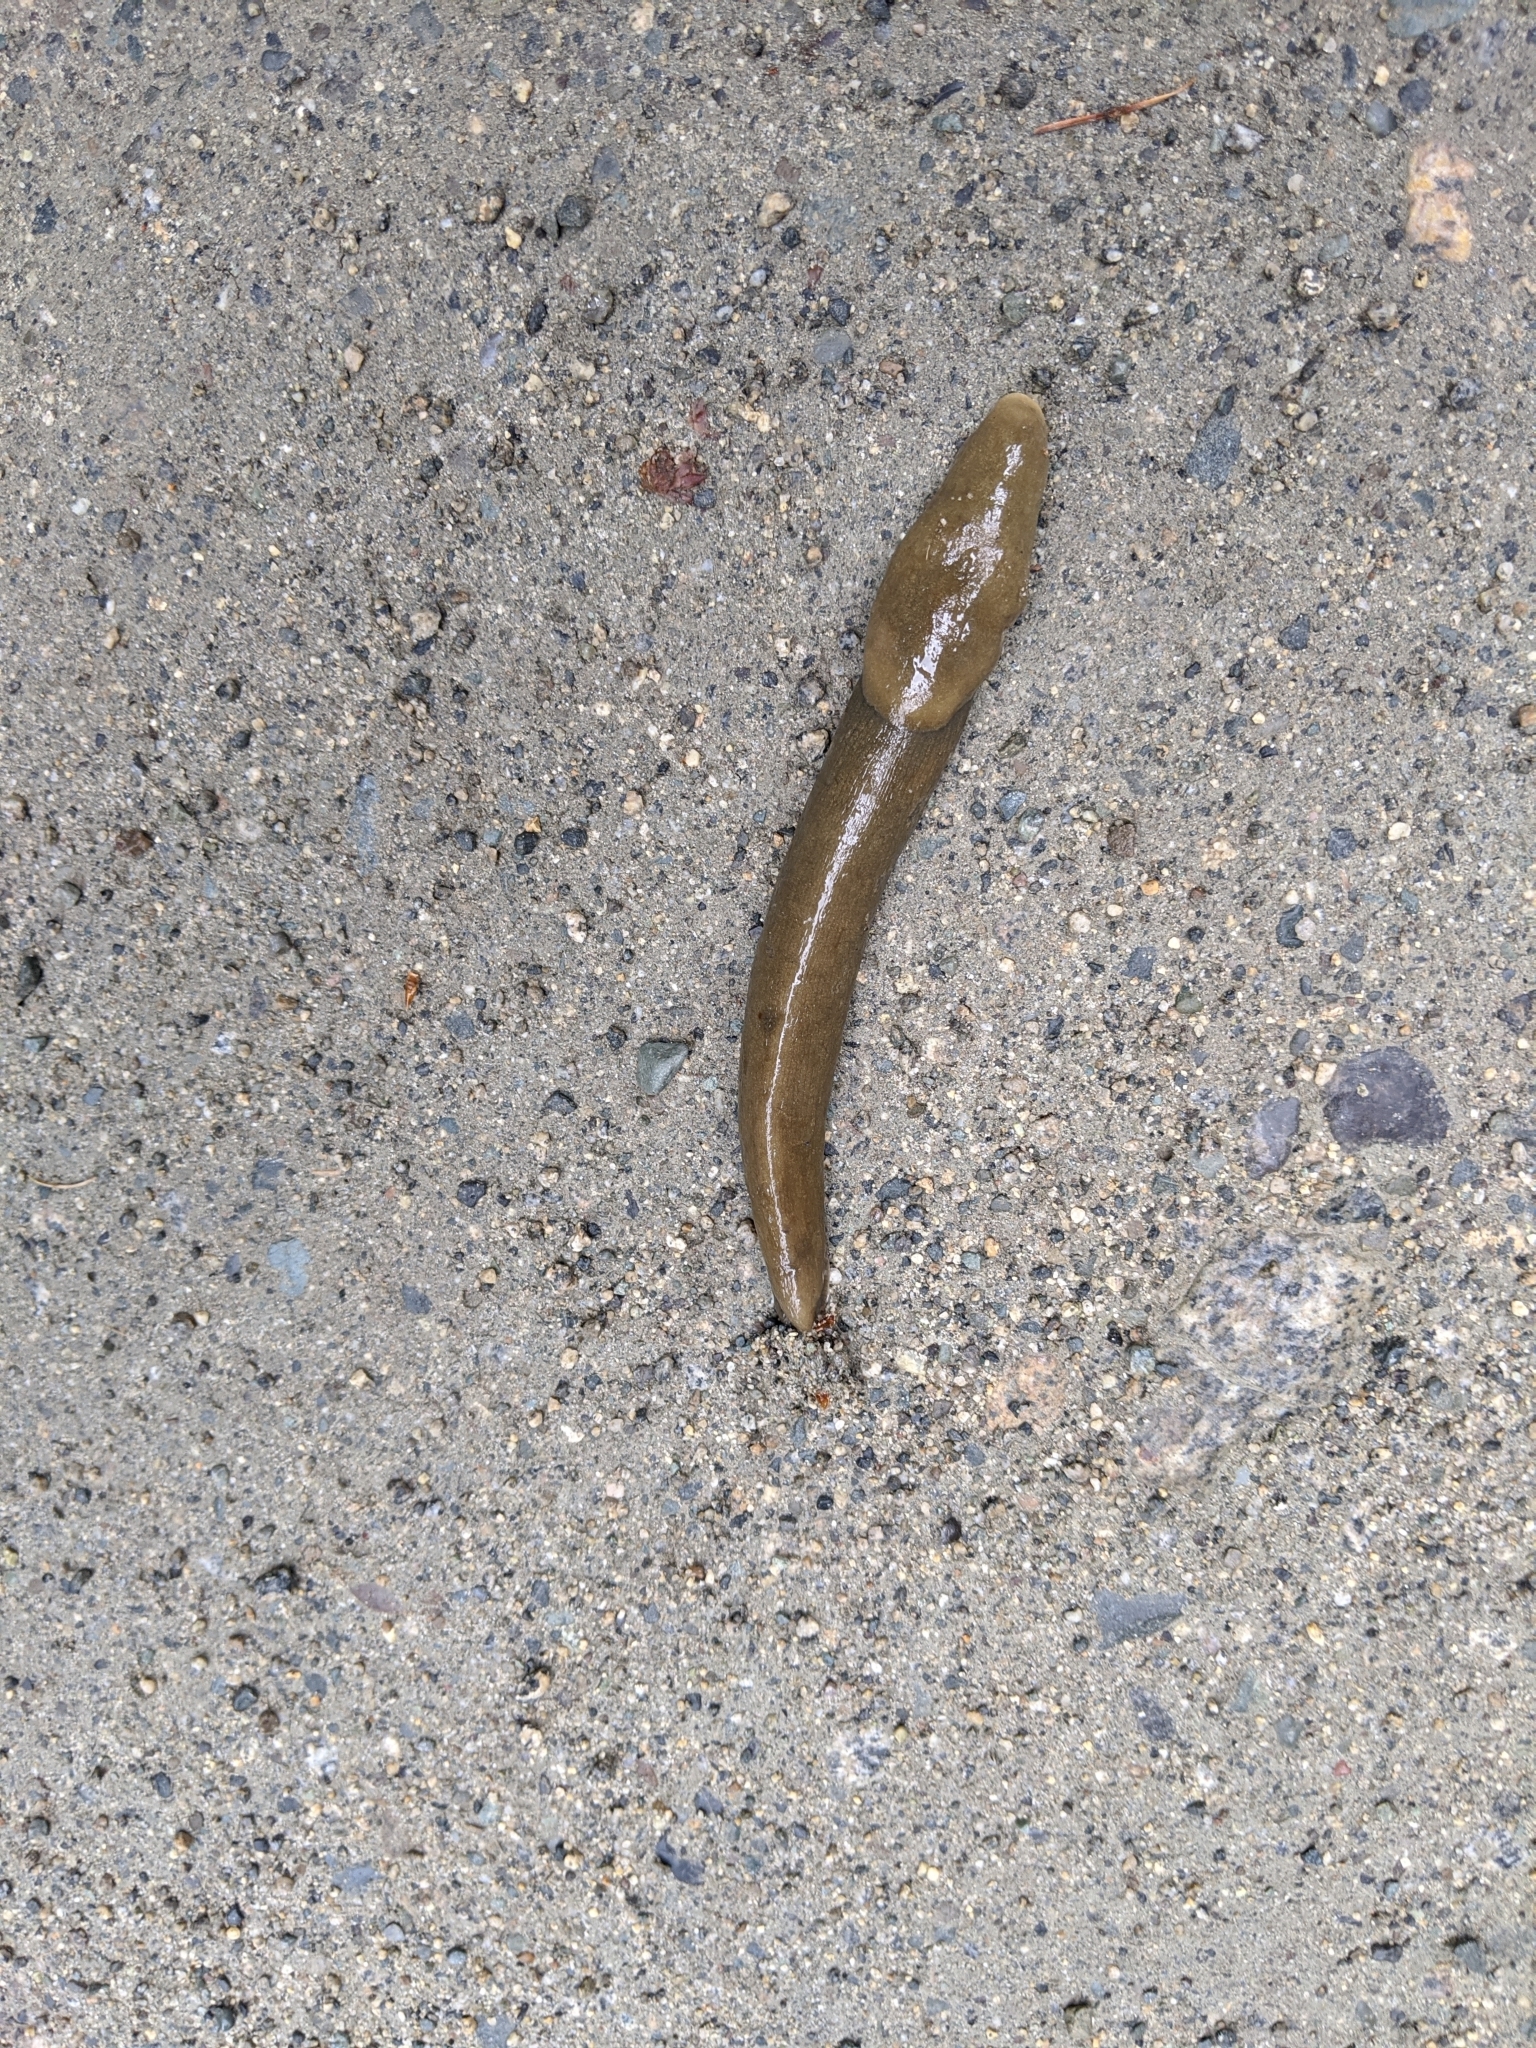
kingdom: Animalia
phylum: Mollusca
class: Gastropoda
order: Stylommatophora
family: Ariolimacidae
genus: Ariolimax
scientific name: Ariolimax columbianus
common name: Pacific banana slug
